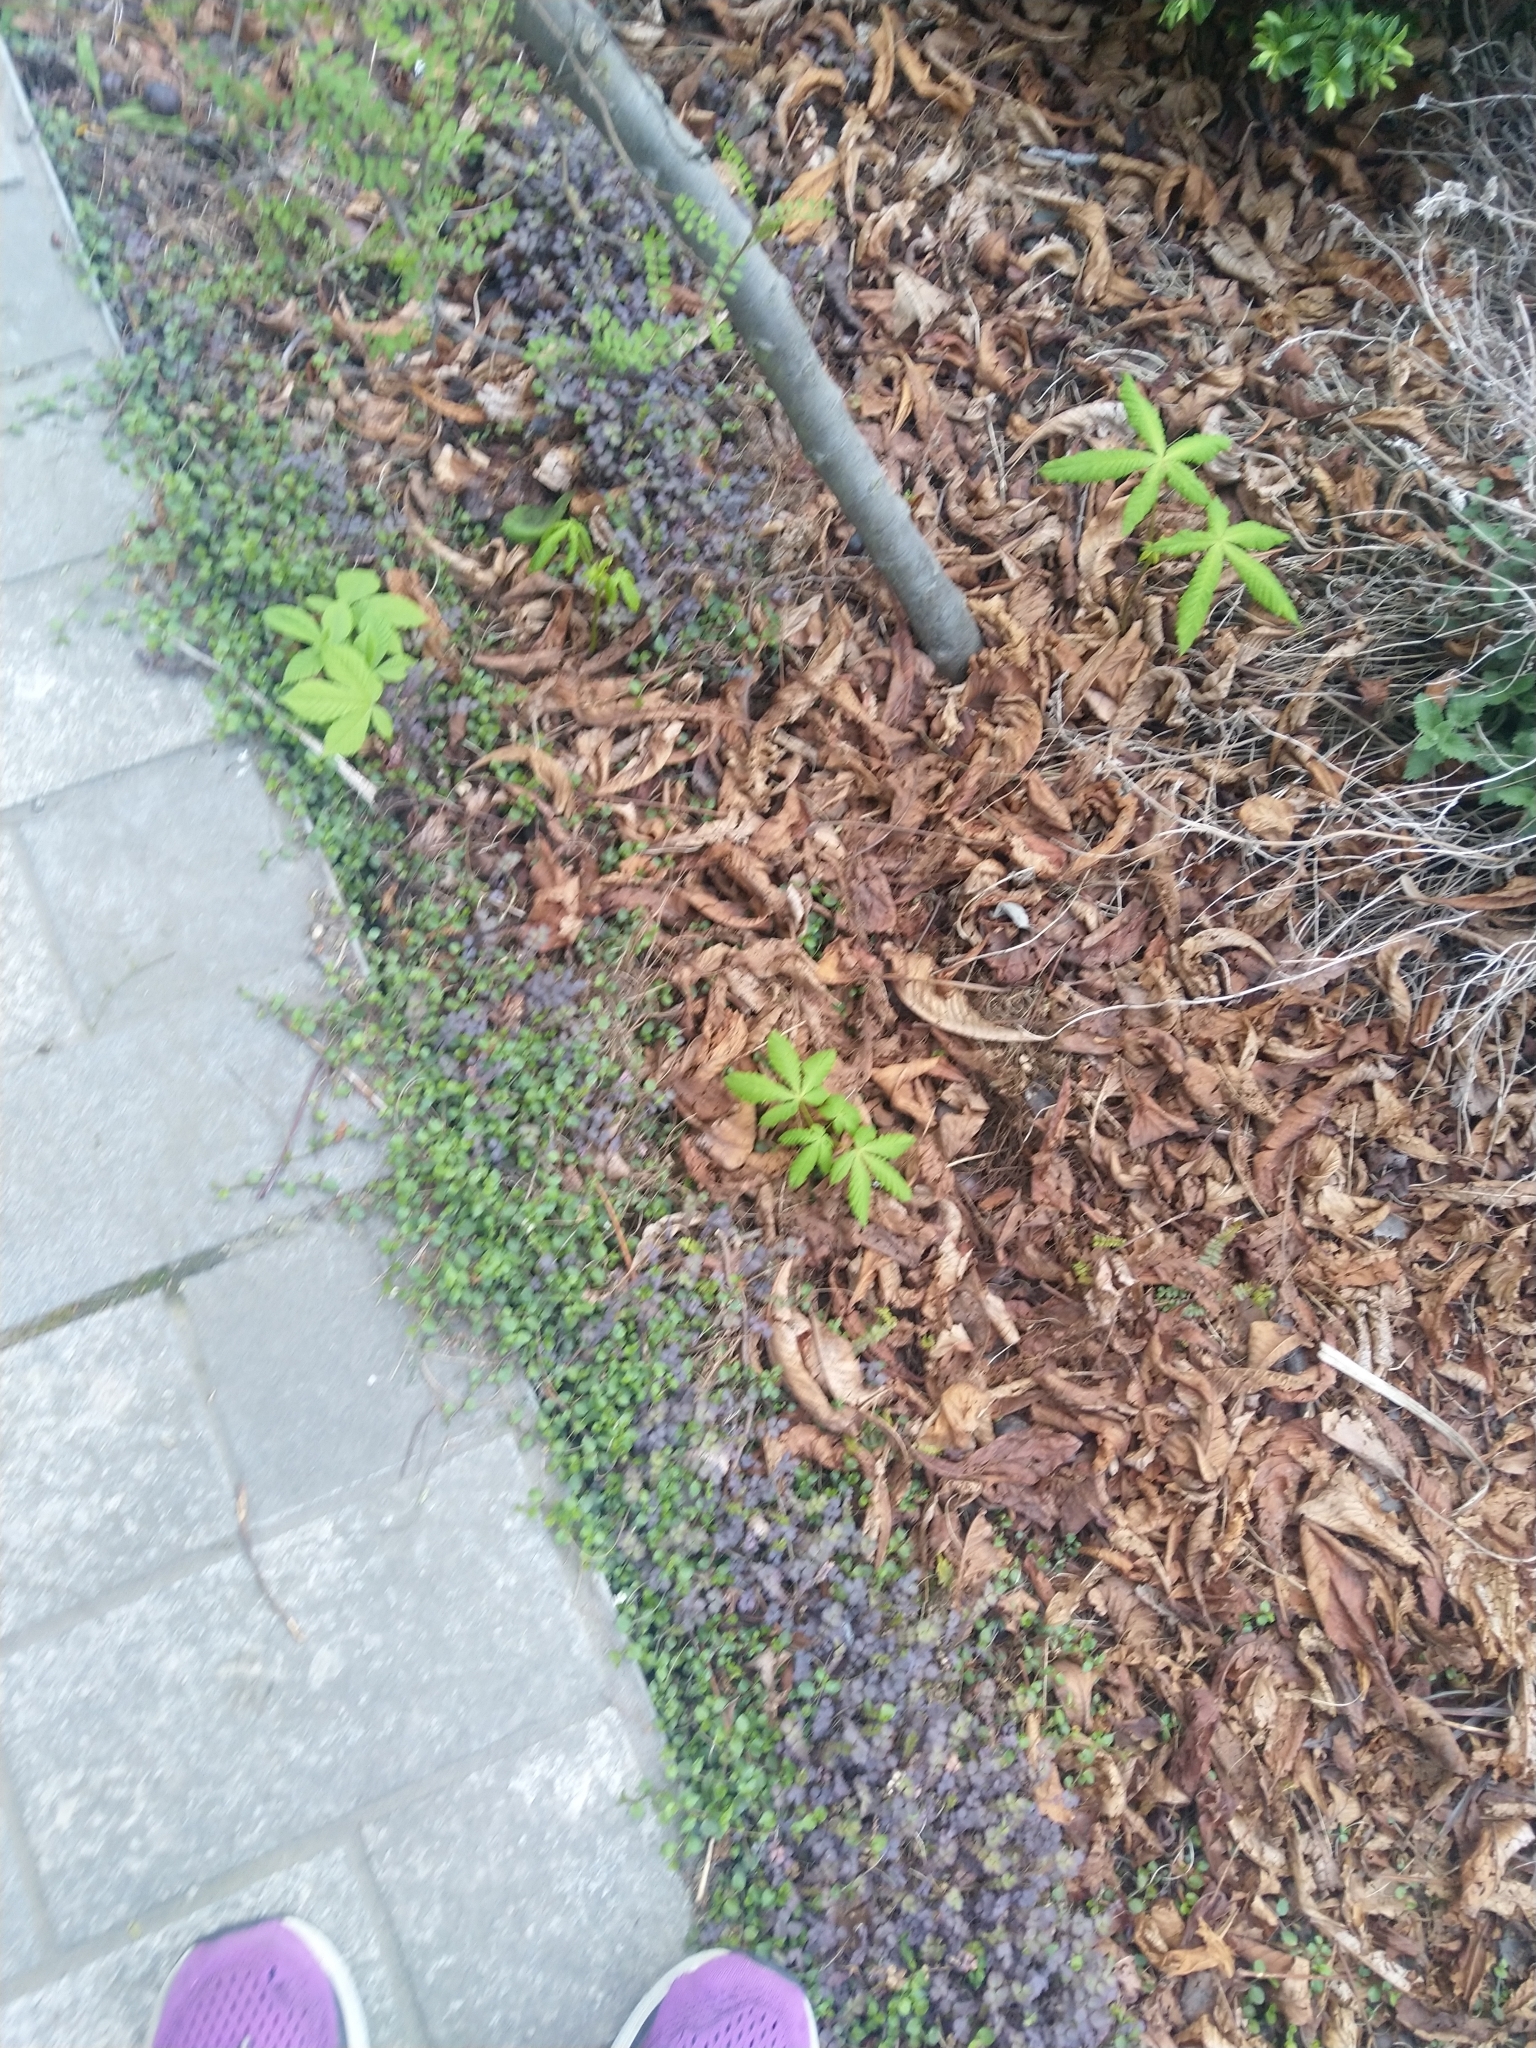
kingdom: Plantae
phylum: Tracheophyta
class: Magnoliopsida
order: Sapindales
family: Sapindaceae
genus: Aesculus
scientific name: Aesculus hippocastanum
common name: Horse-chestnut
